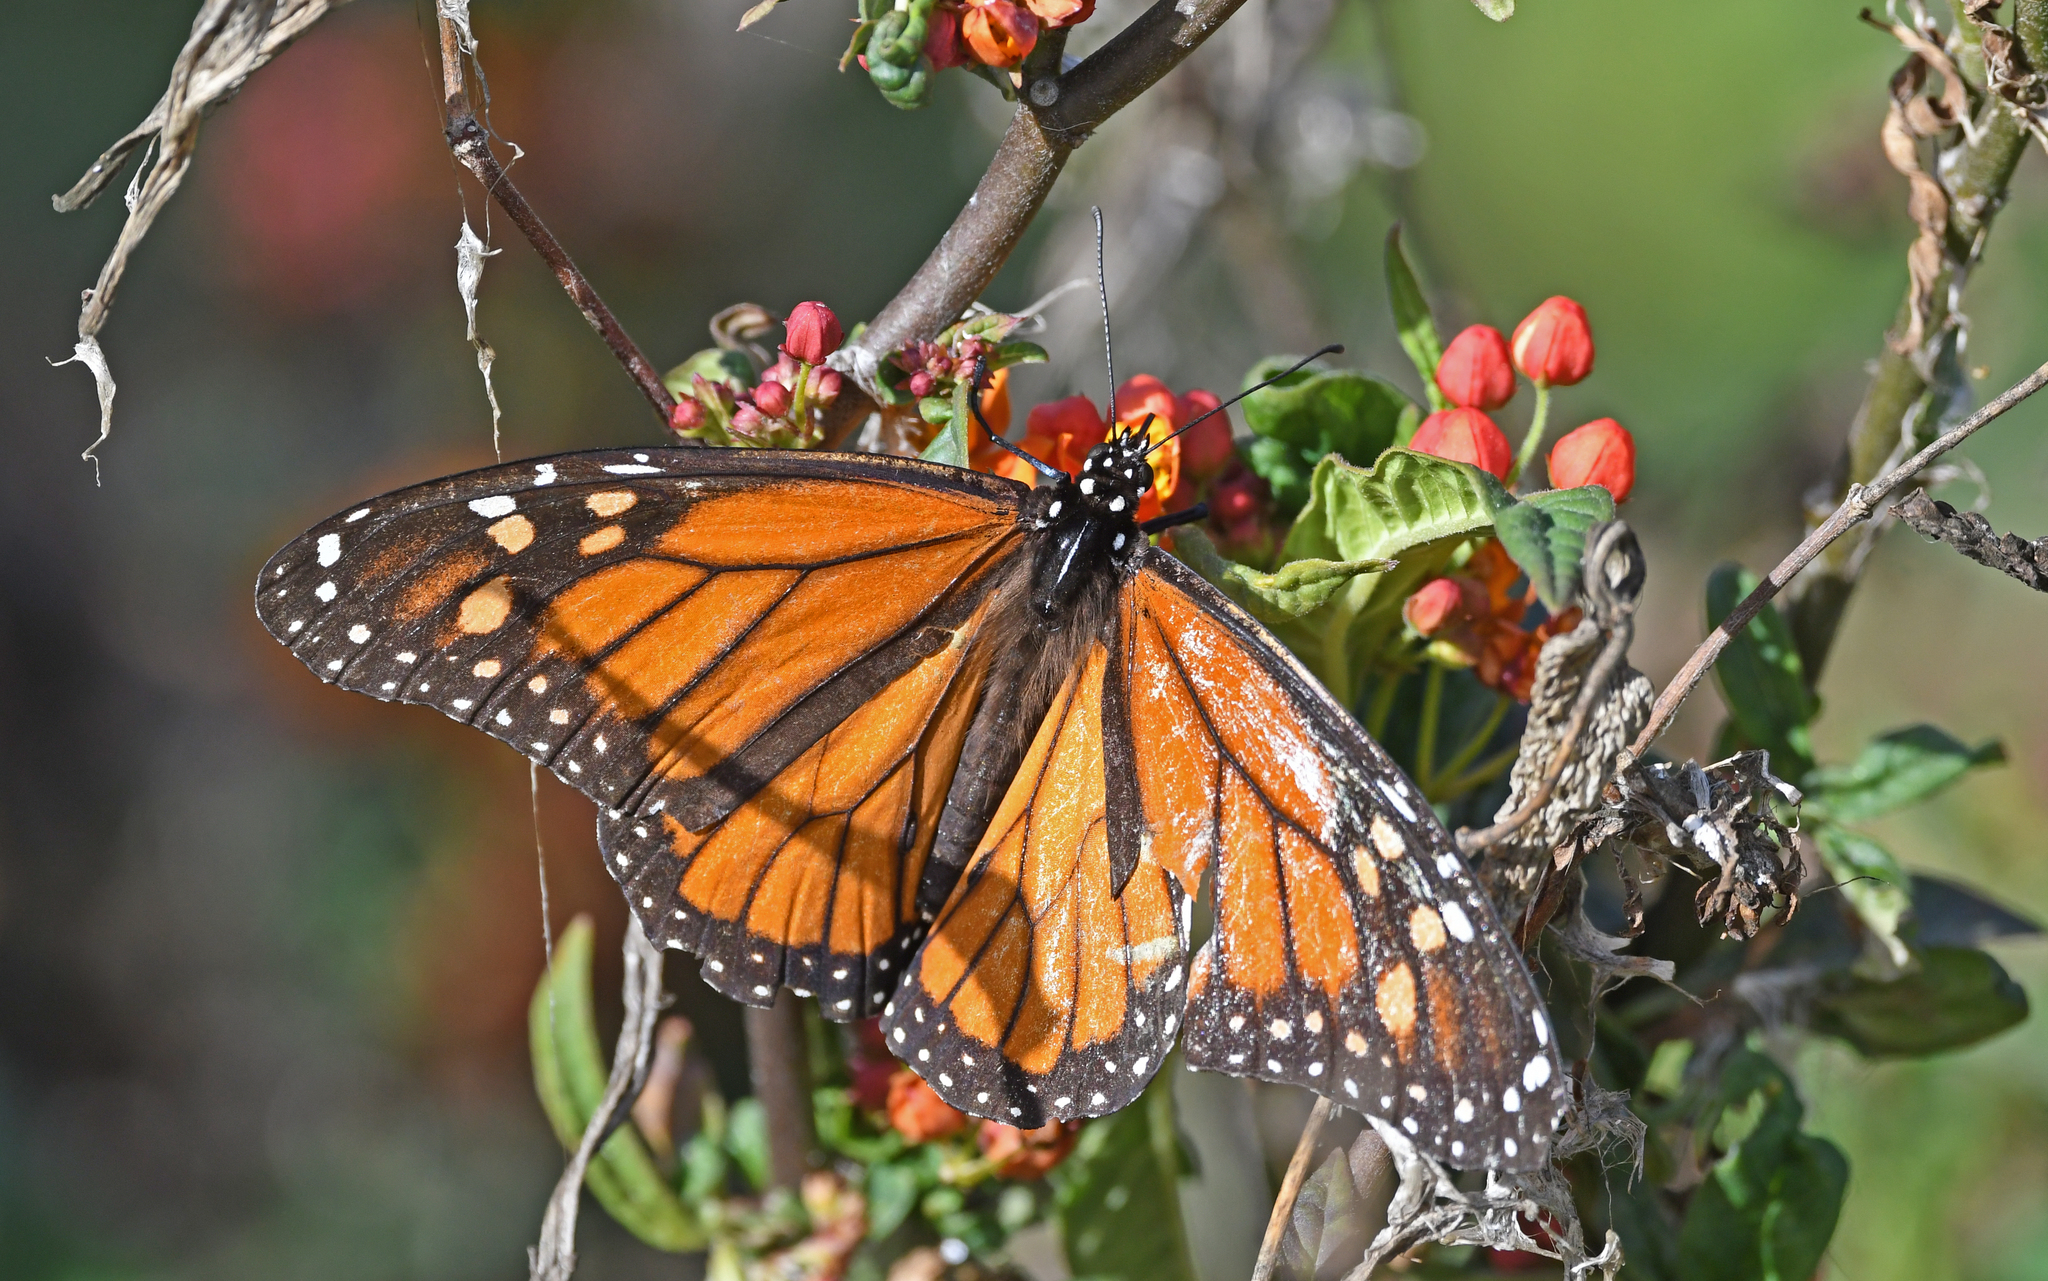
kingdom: Animalia
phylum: Arthropoda
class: Insecta
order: Lepidoptera
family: Nymphalidae
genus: Danaus
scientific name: Danaus plexippus
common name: Monarch
